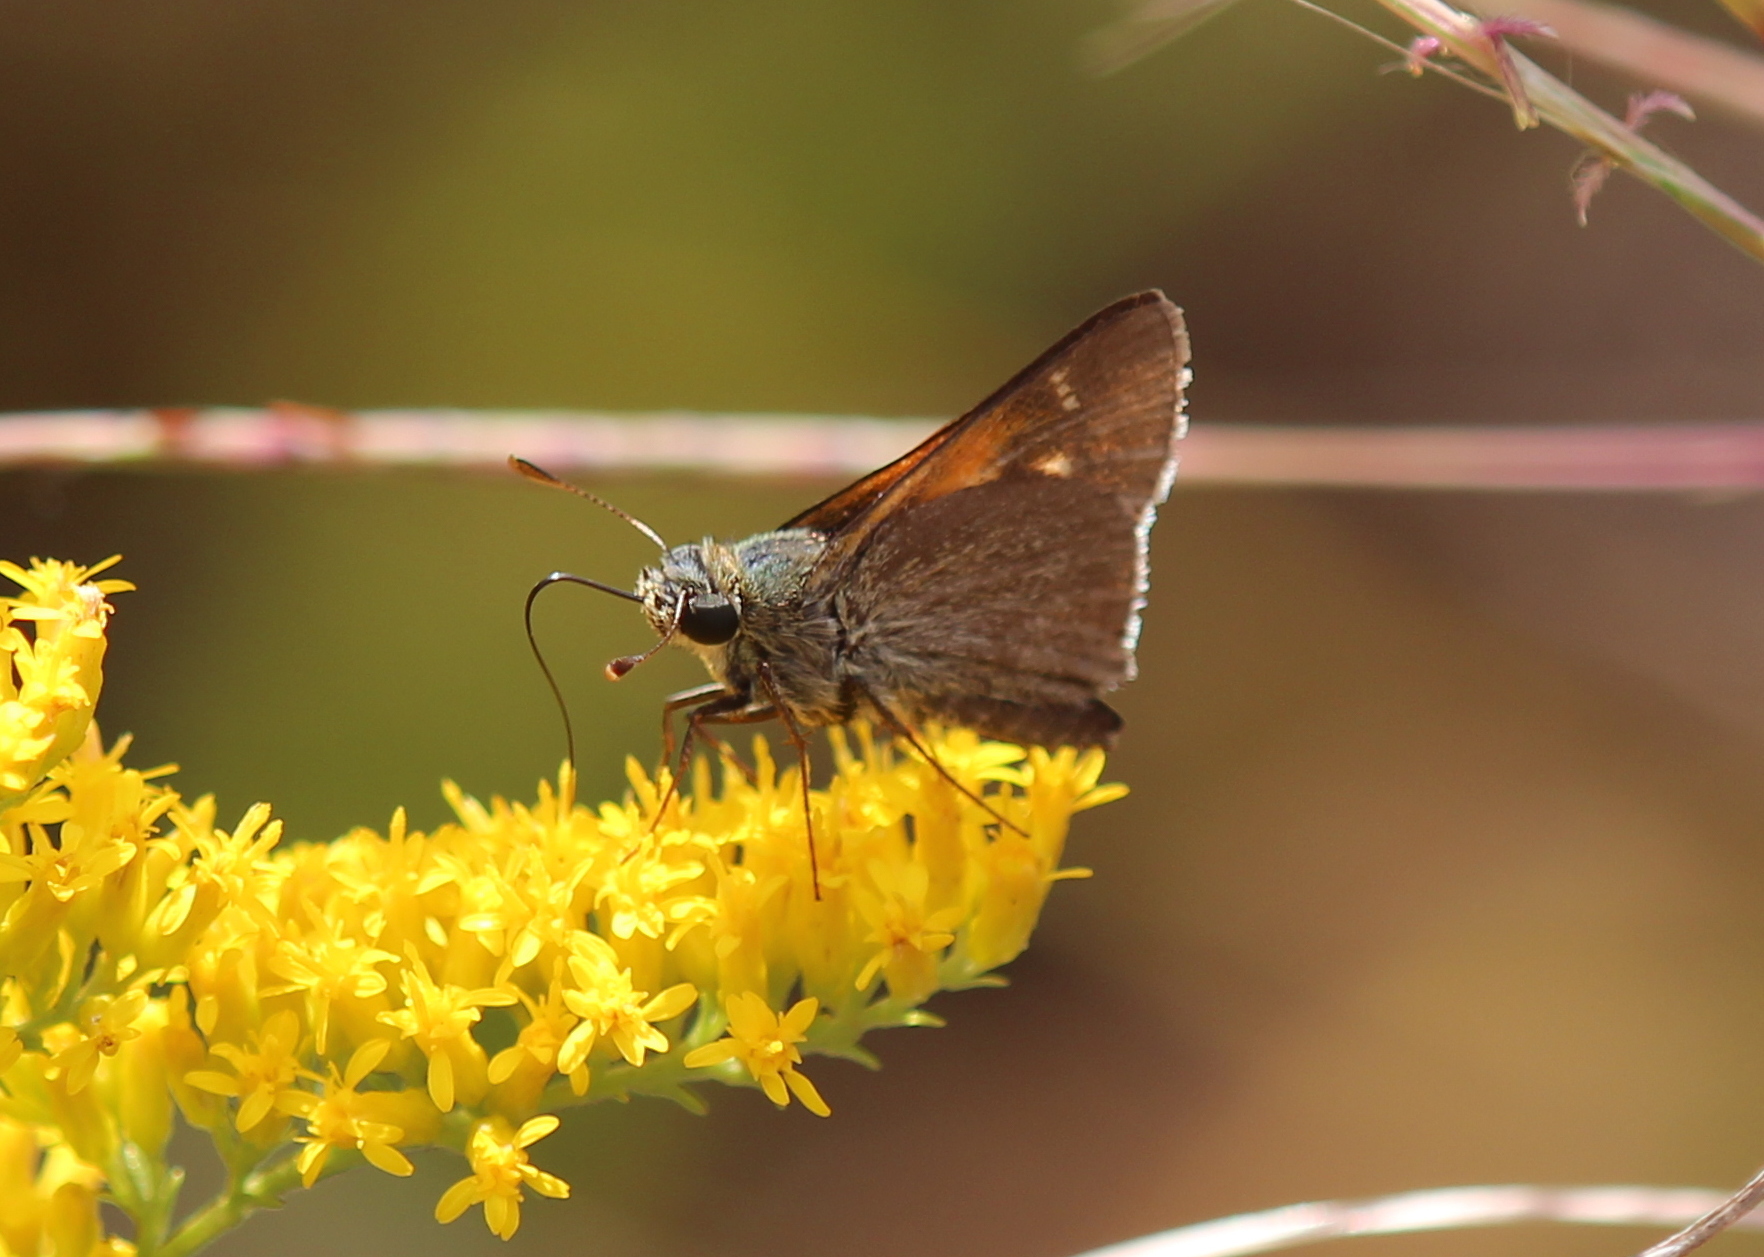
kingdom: Animalia
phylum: Arthropoda
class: Insecta
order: Lepidoptera
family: Hesperiidae
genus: Polites
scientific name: Polites themistocles
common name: Tawny-edged skipper
